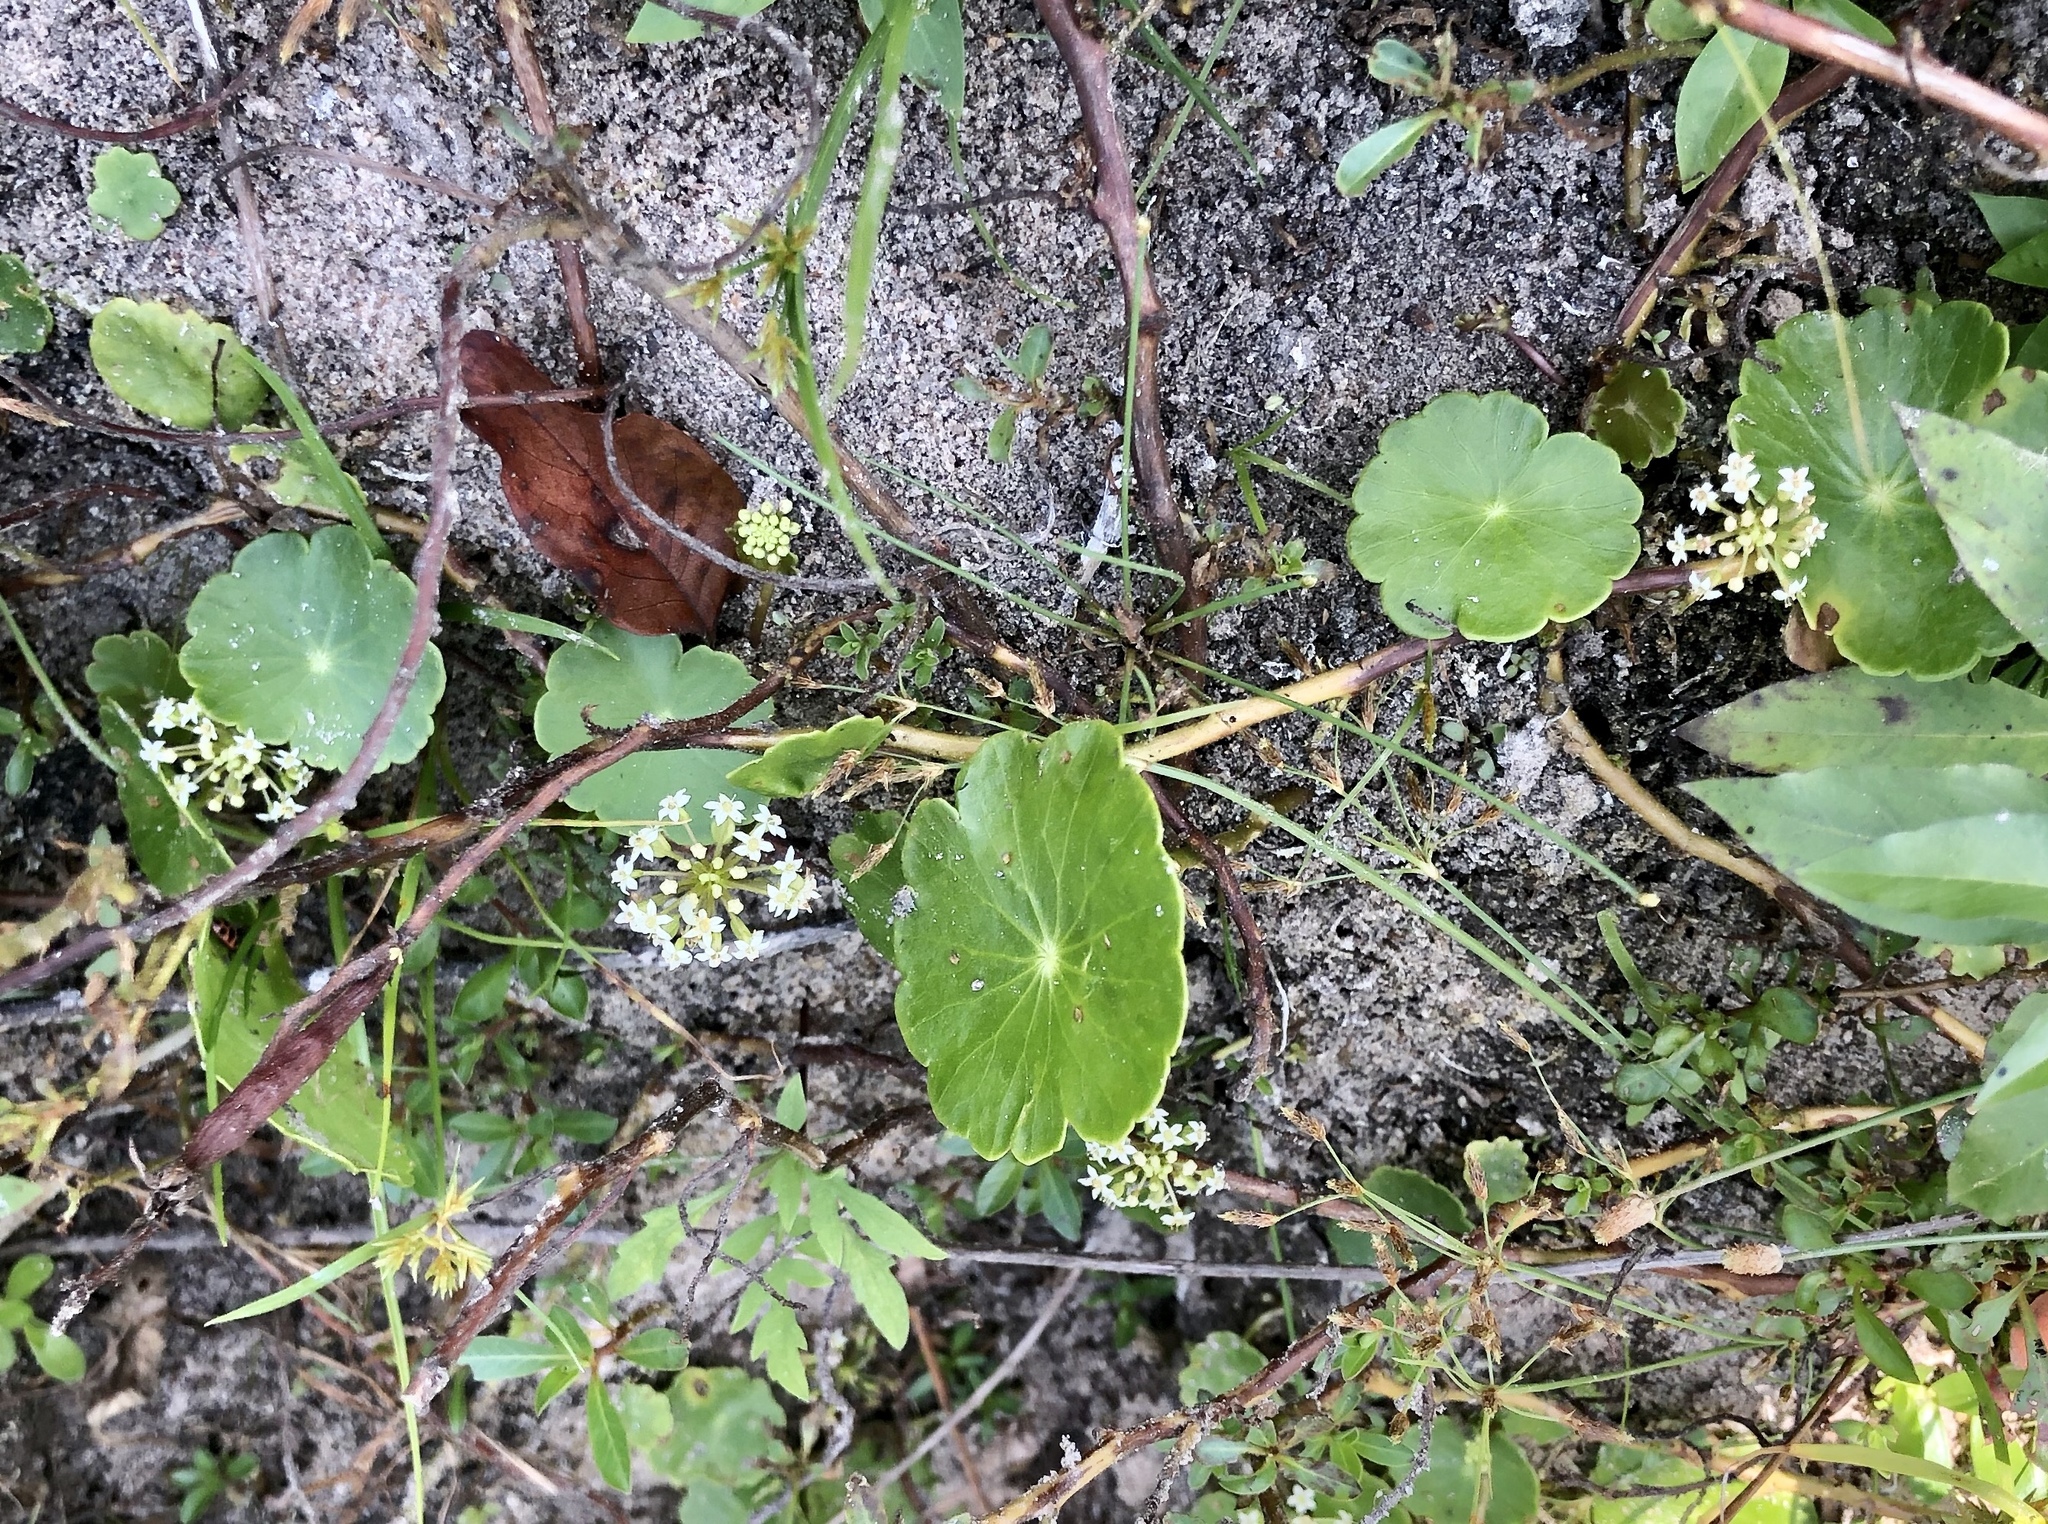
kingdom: Plantae
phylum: Tracheophyta
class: Magnoliopsida
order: Apiales
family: Araliaceae
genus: Hydrocotyle
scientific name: Hydrocotyle umbellata
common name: Water pennywort
